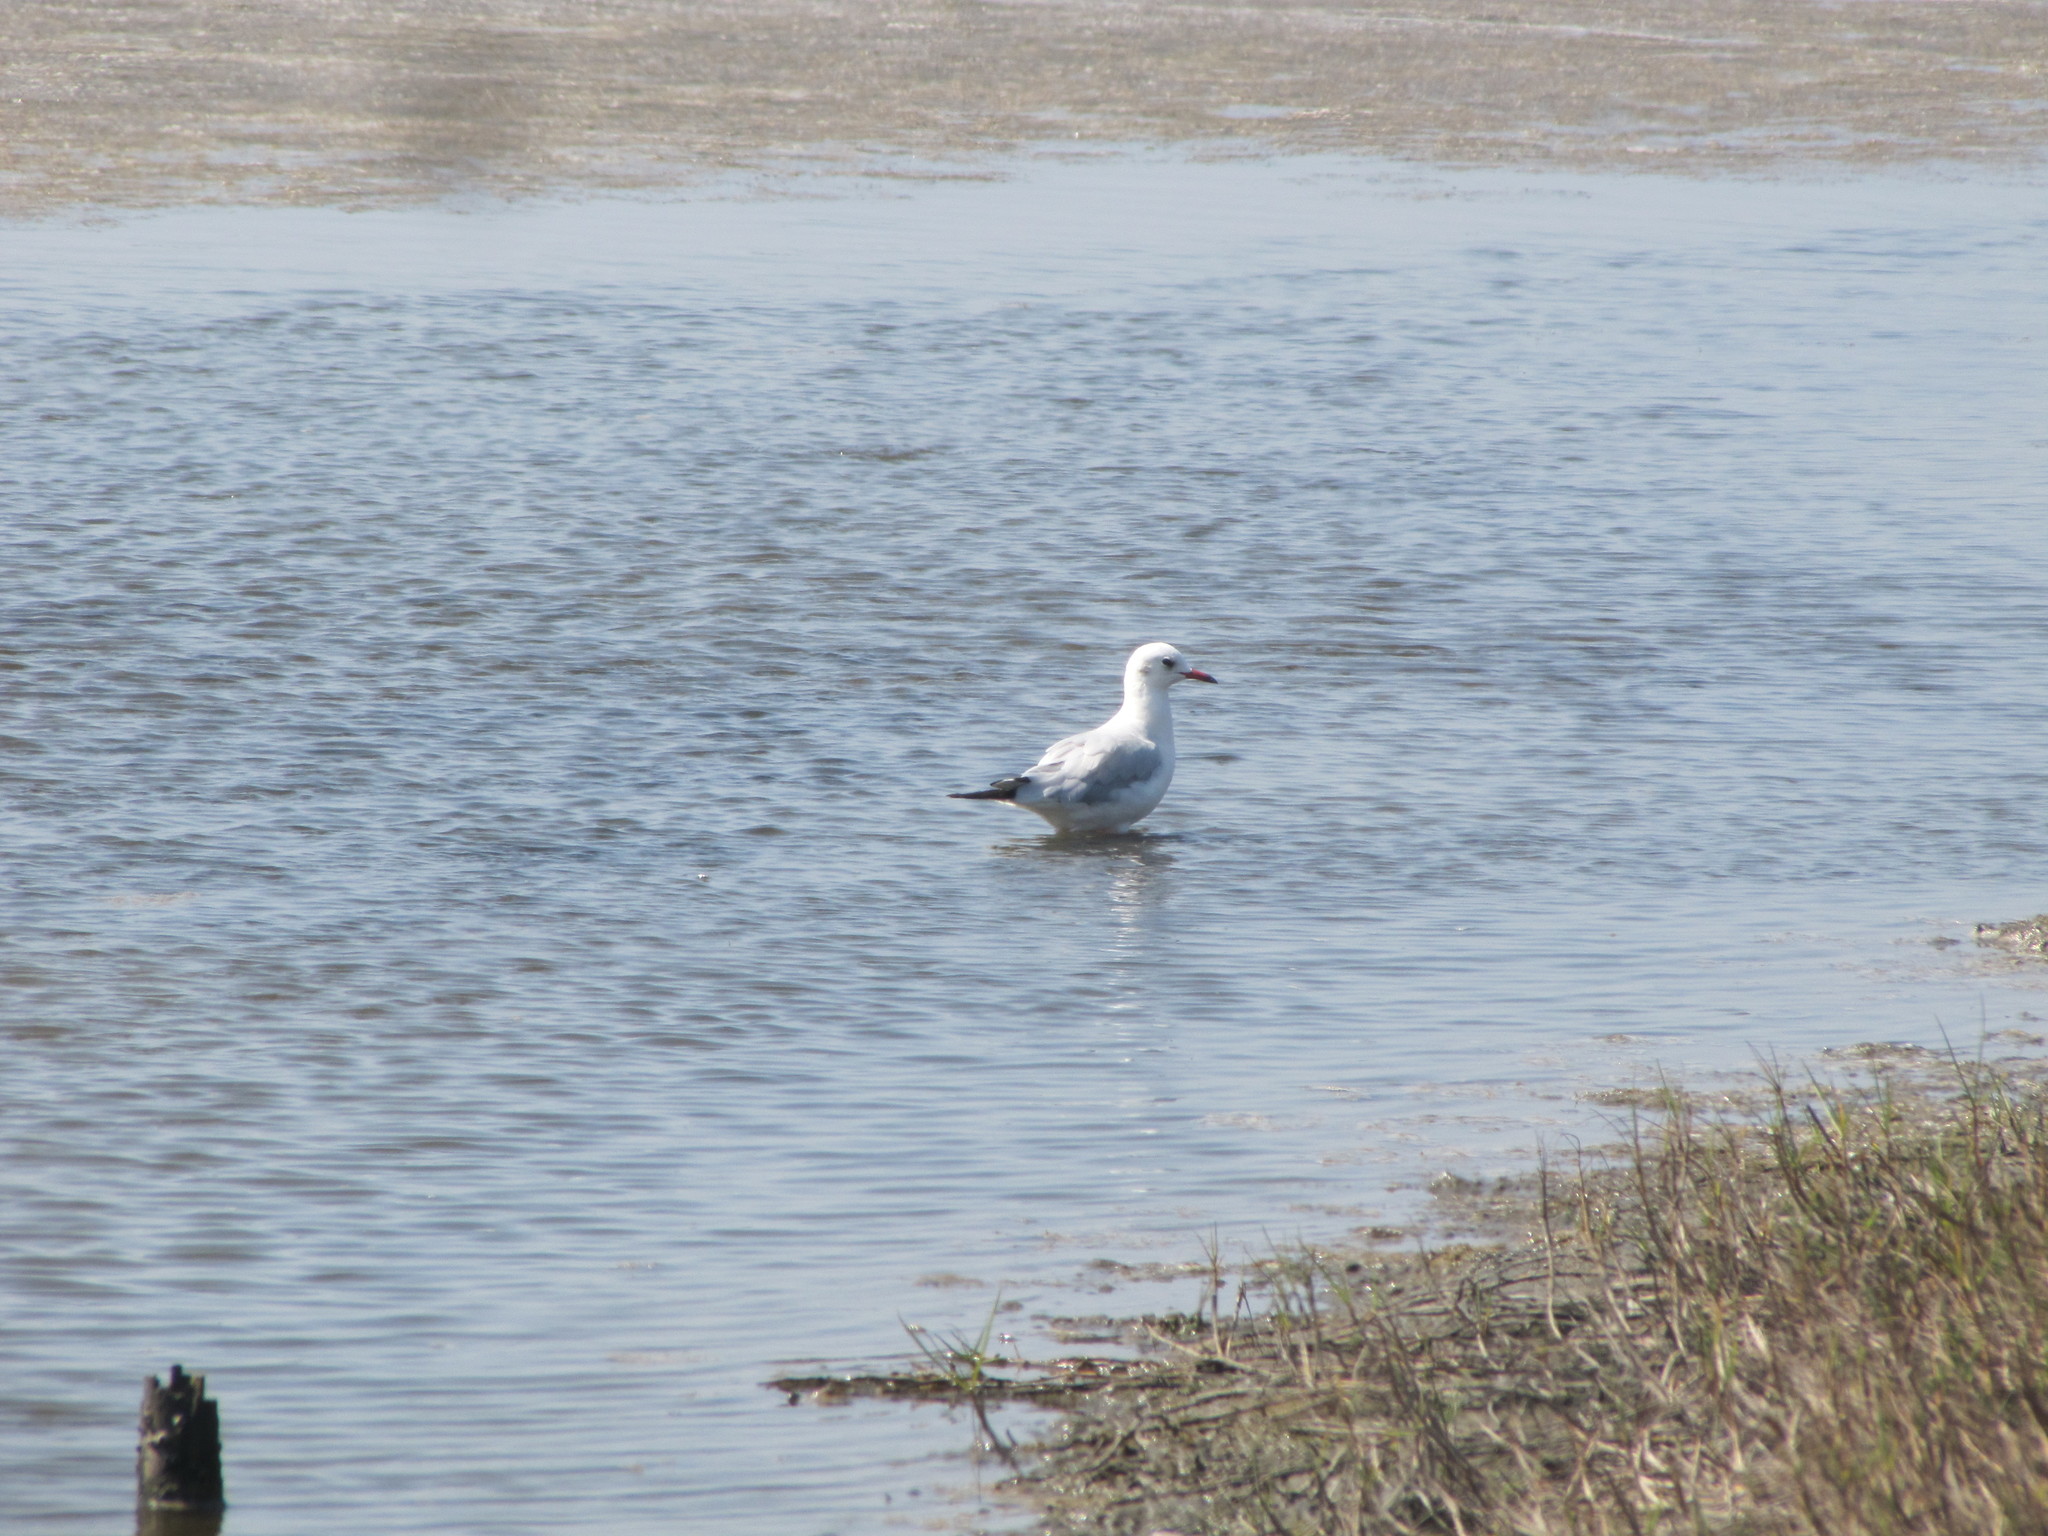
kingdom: Animalia
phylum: Chordata
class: Aves
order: Charadriiformes
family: Laridae
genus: Chroicocephalus
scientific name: Chroicocephalus ridibundus
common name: Black-headed gull
